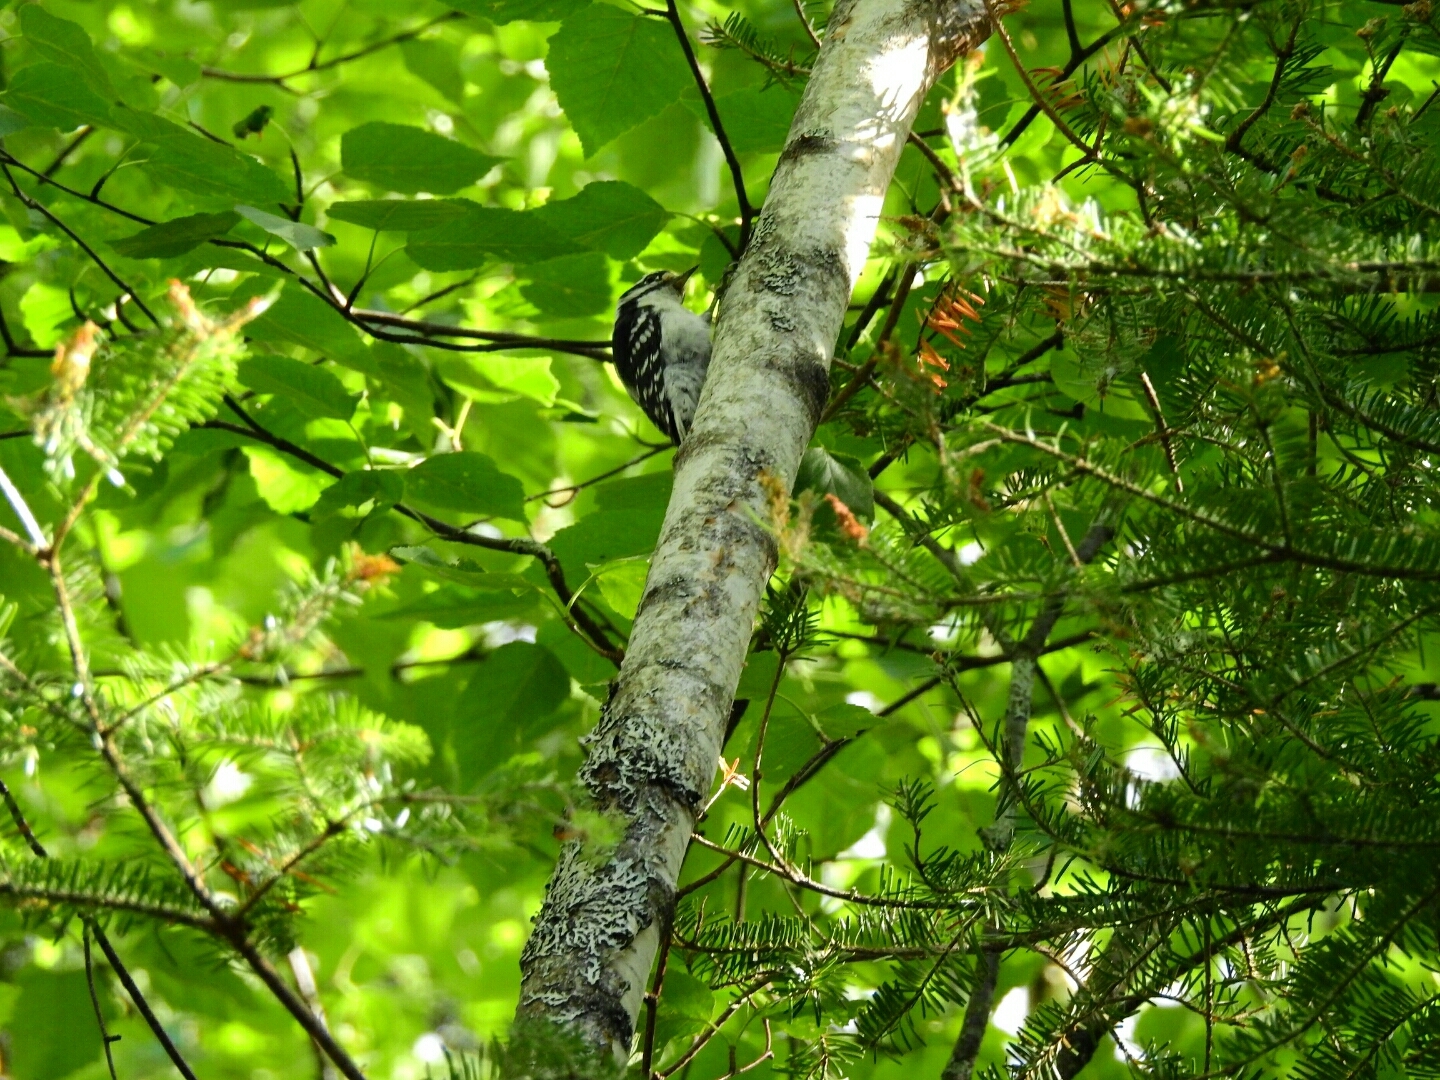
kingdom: Animalia
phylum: Chordata
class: Aves
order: Piciformes
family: Picidae
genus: Dryobates
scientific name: Dryobates pubescens
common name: Downy woodpecker
